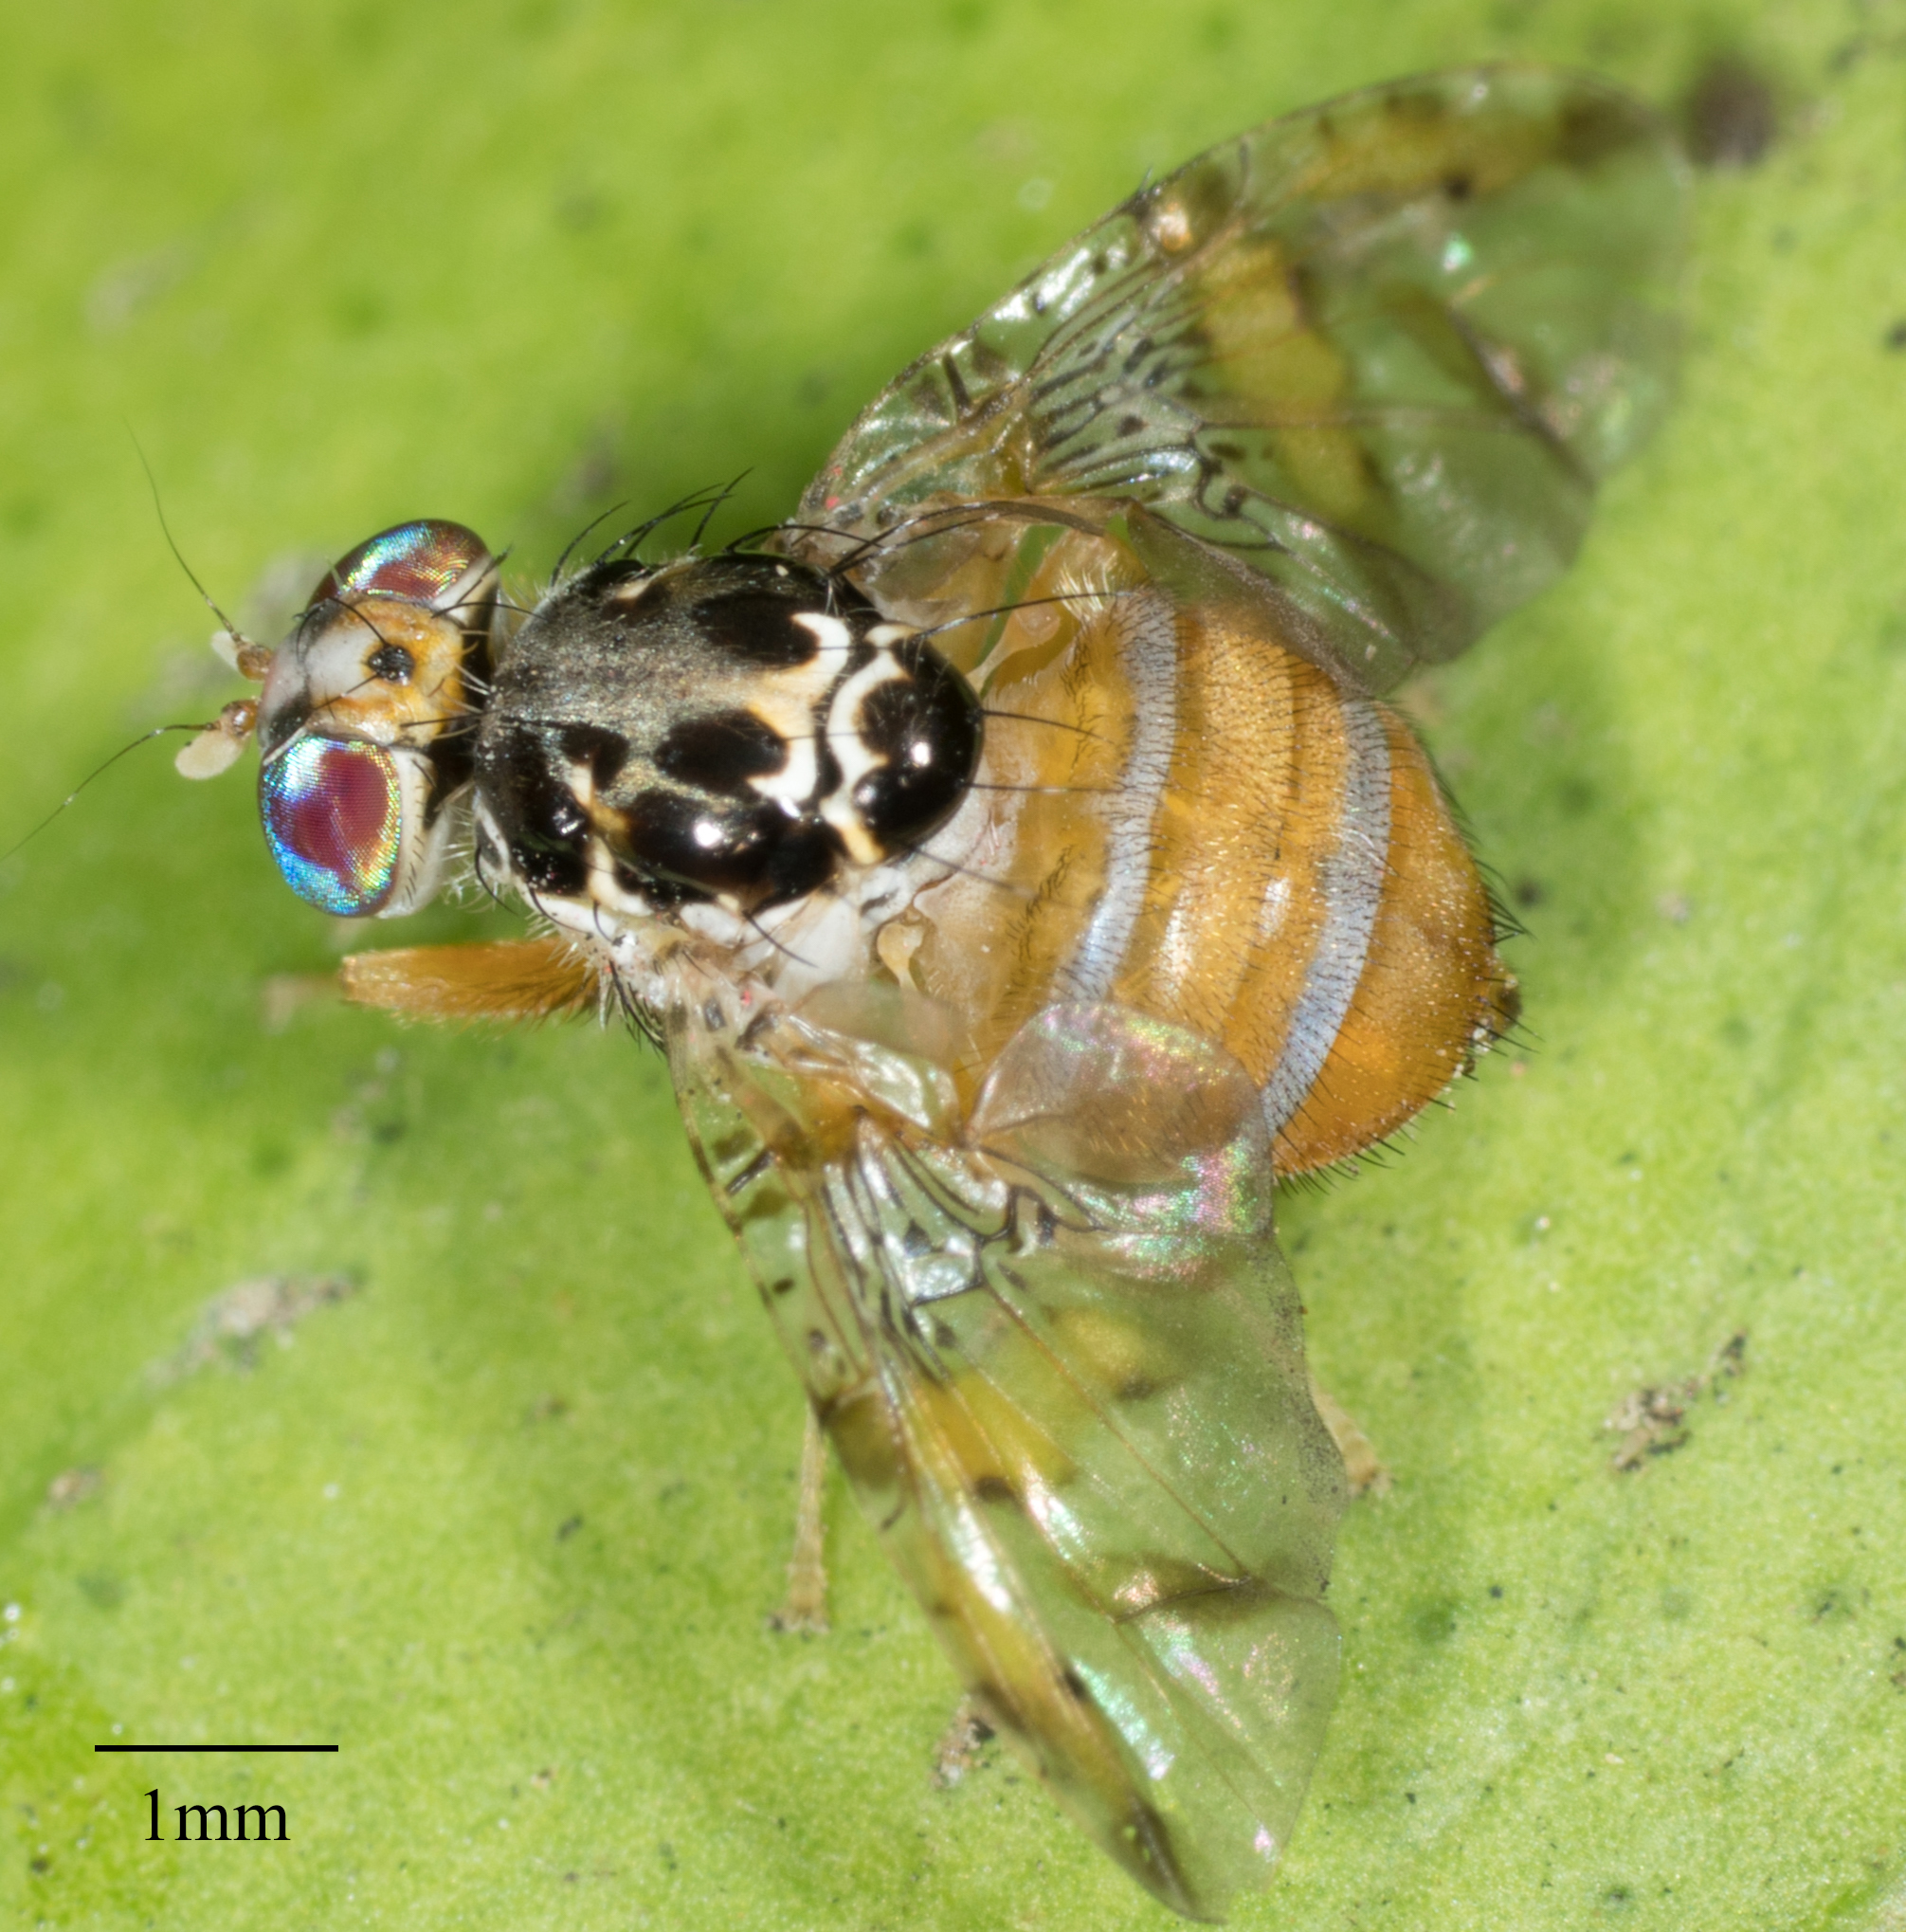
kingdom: Animalia
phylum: Arthropoda
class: Insecta
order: Diptera
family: Tephritidae
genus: Ceratitis
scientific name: Ceratitis capitata
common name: Mediterranean fruit fly
